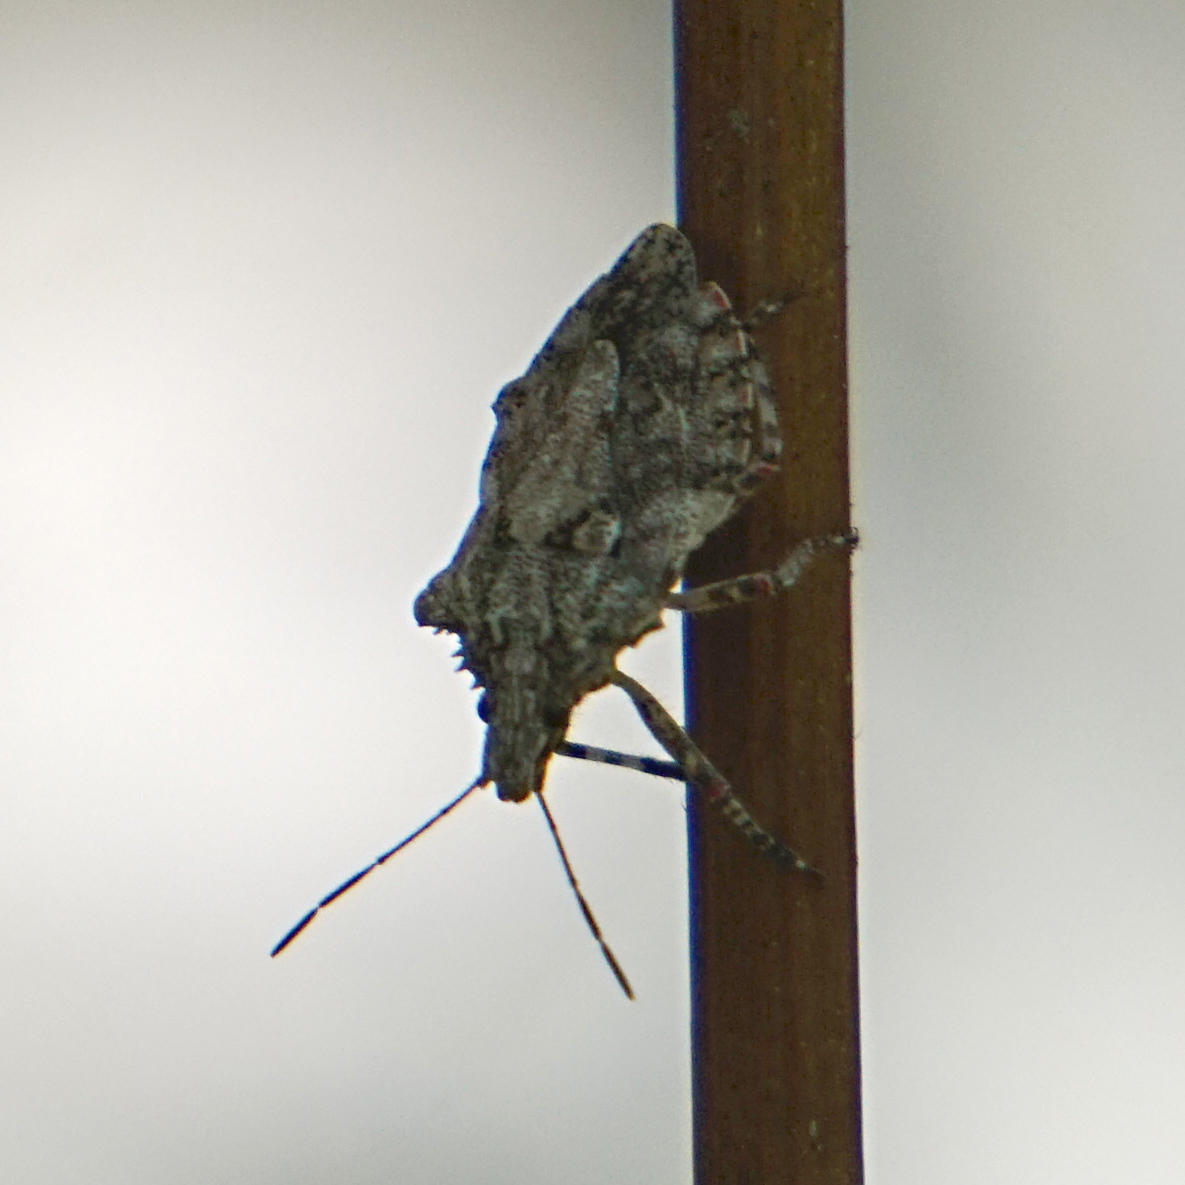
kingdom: Animalia
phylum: Arthropoda
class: Insecta
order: Hemiptera
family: Pentatomidae
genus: Brochymena
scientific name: Brochymena arborea
